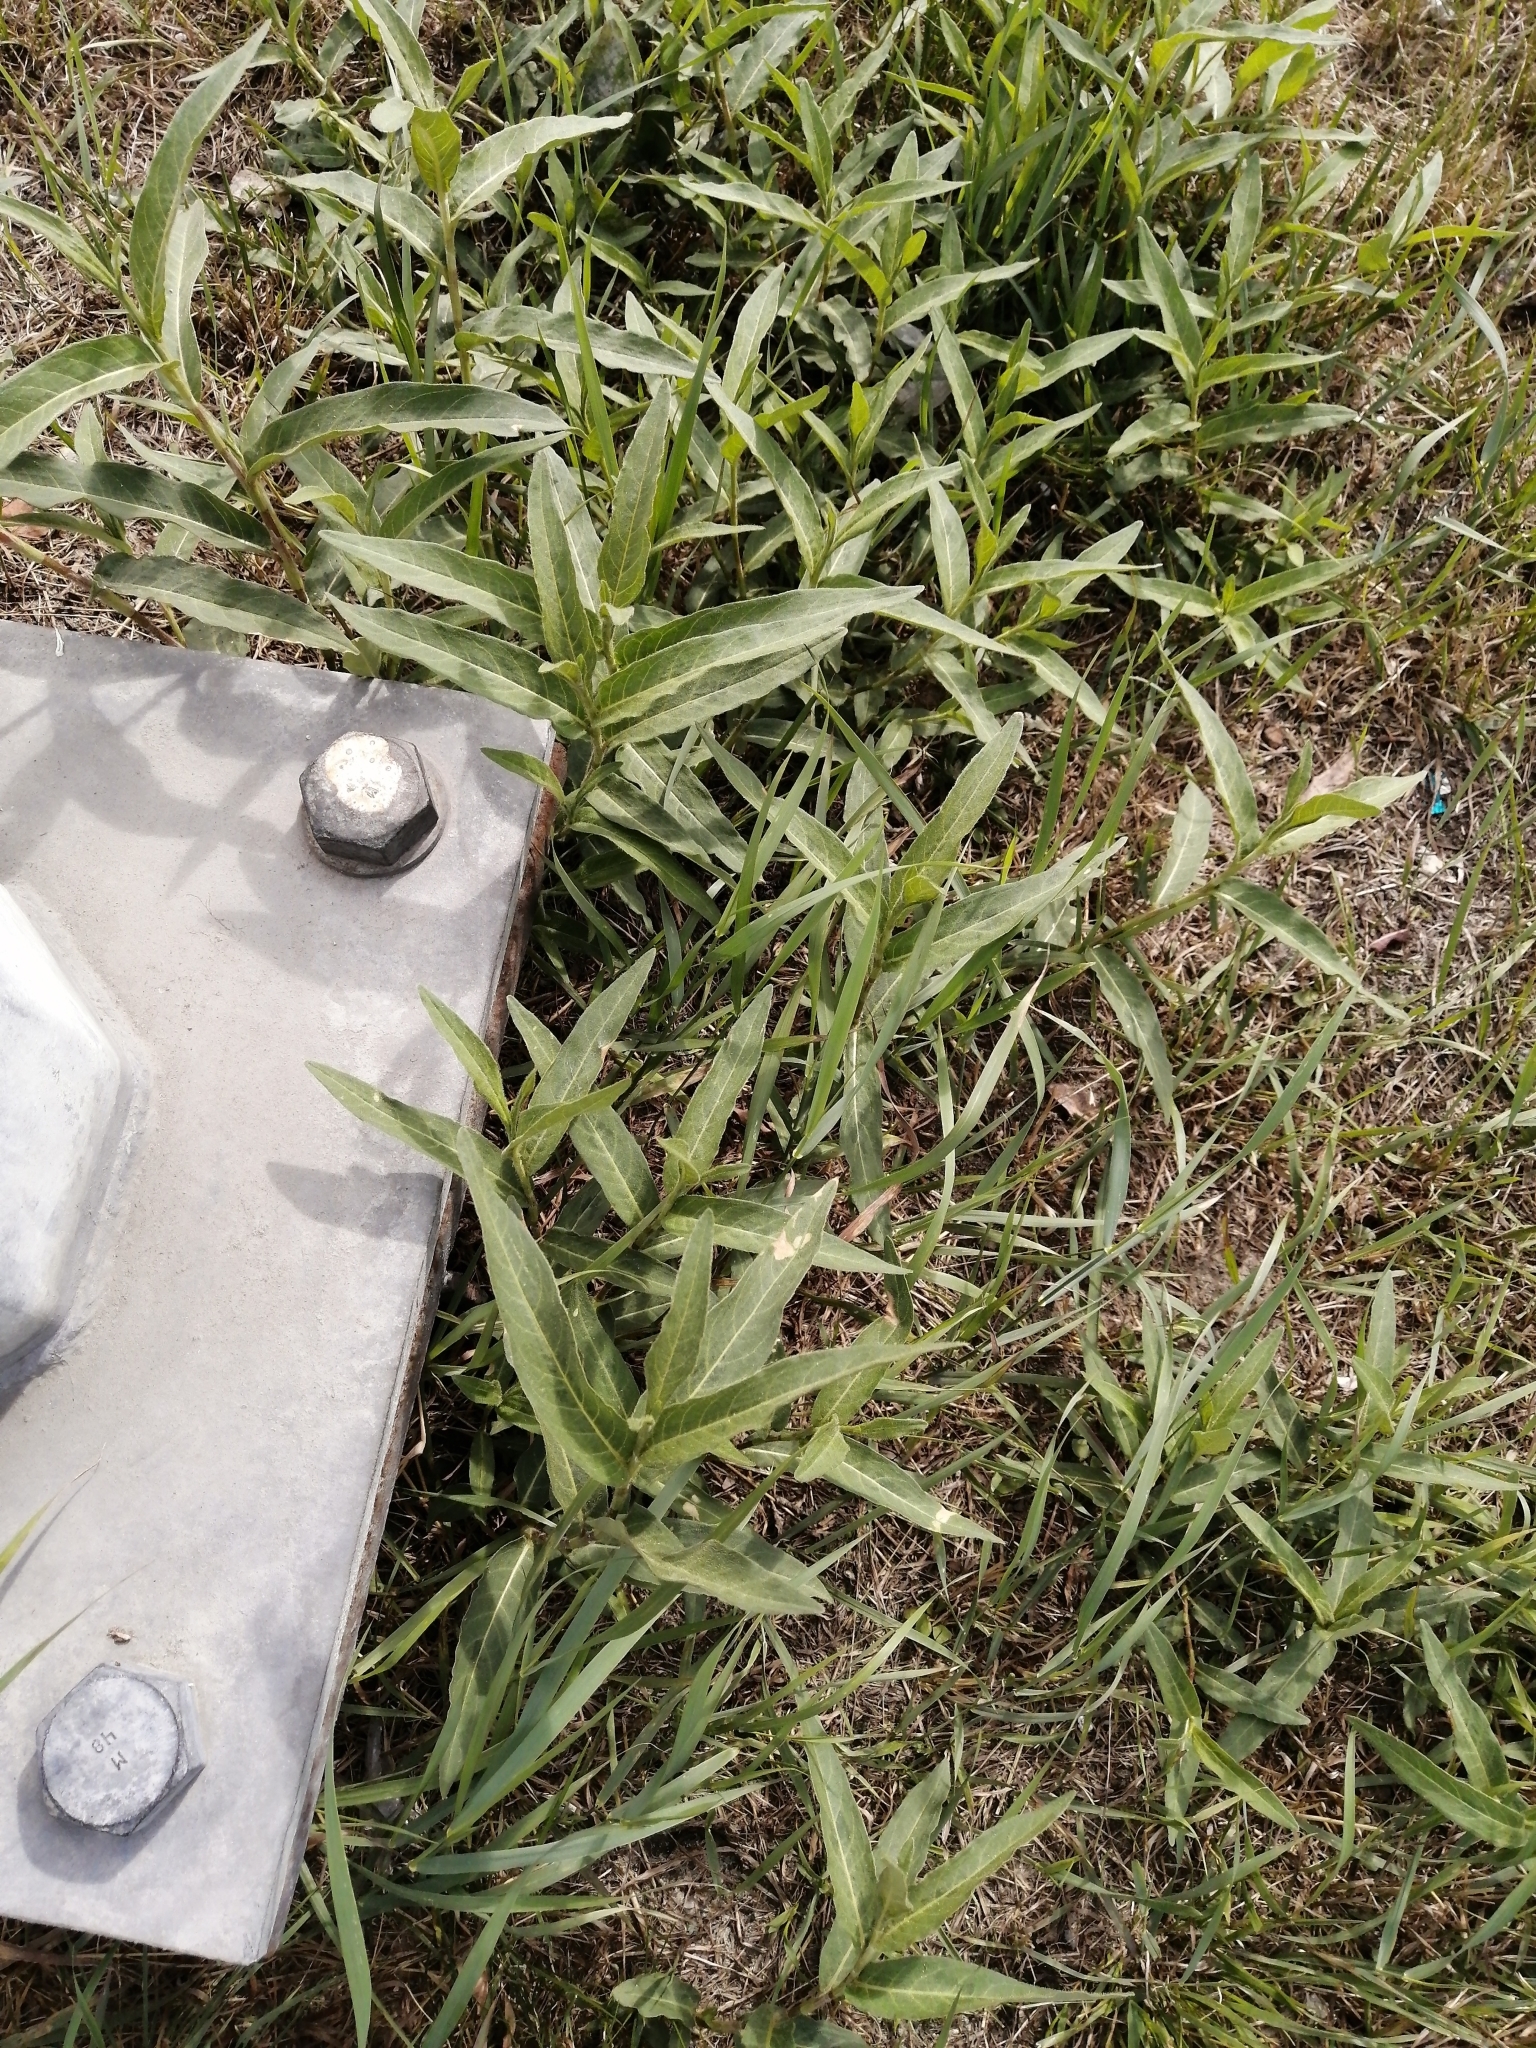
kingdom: Plantae
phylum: Tracheophyta
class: Magnoliopsida
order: Caryophyllales
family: Polygonaceae
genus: Persicaria
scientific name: Persicaria amphibia
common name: Amphibious bistort
